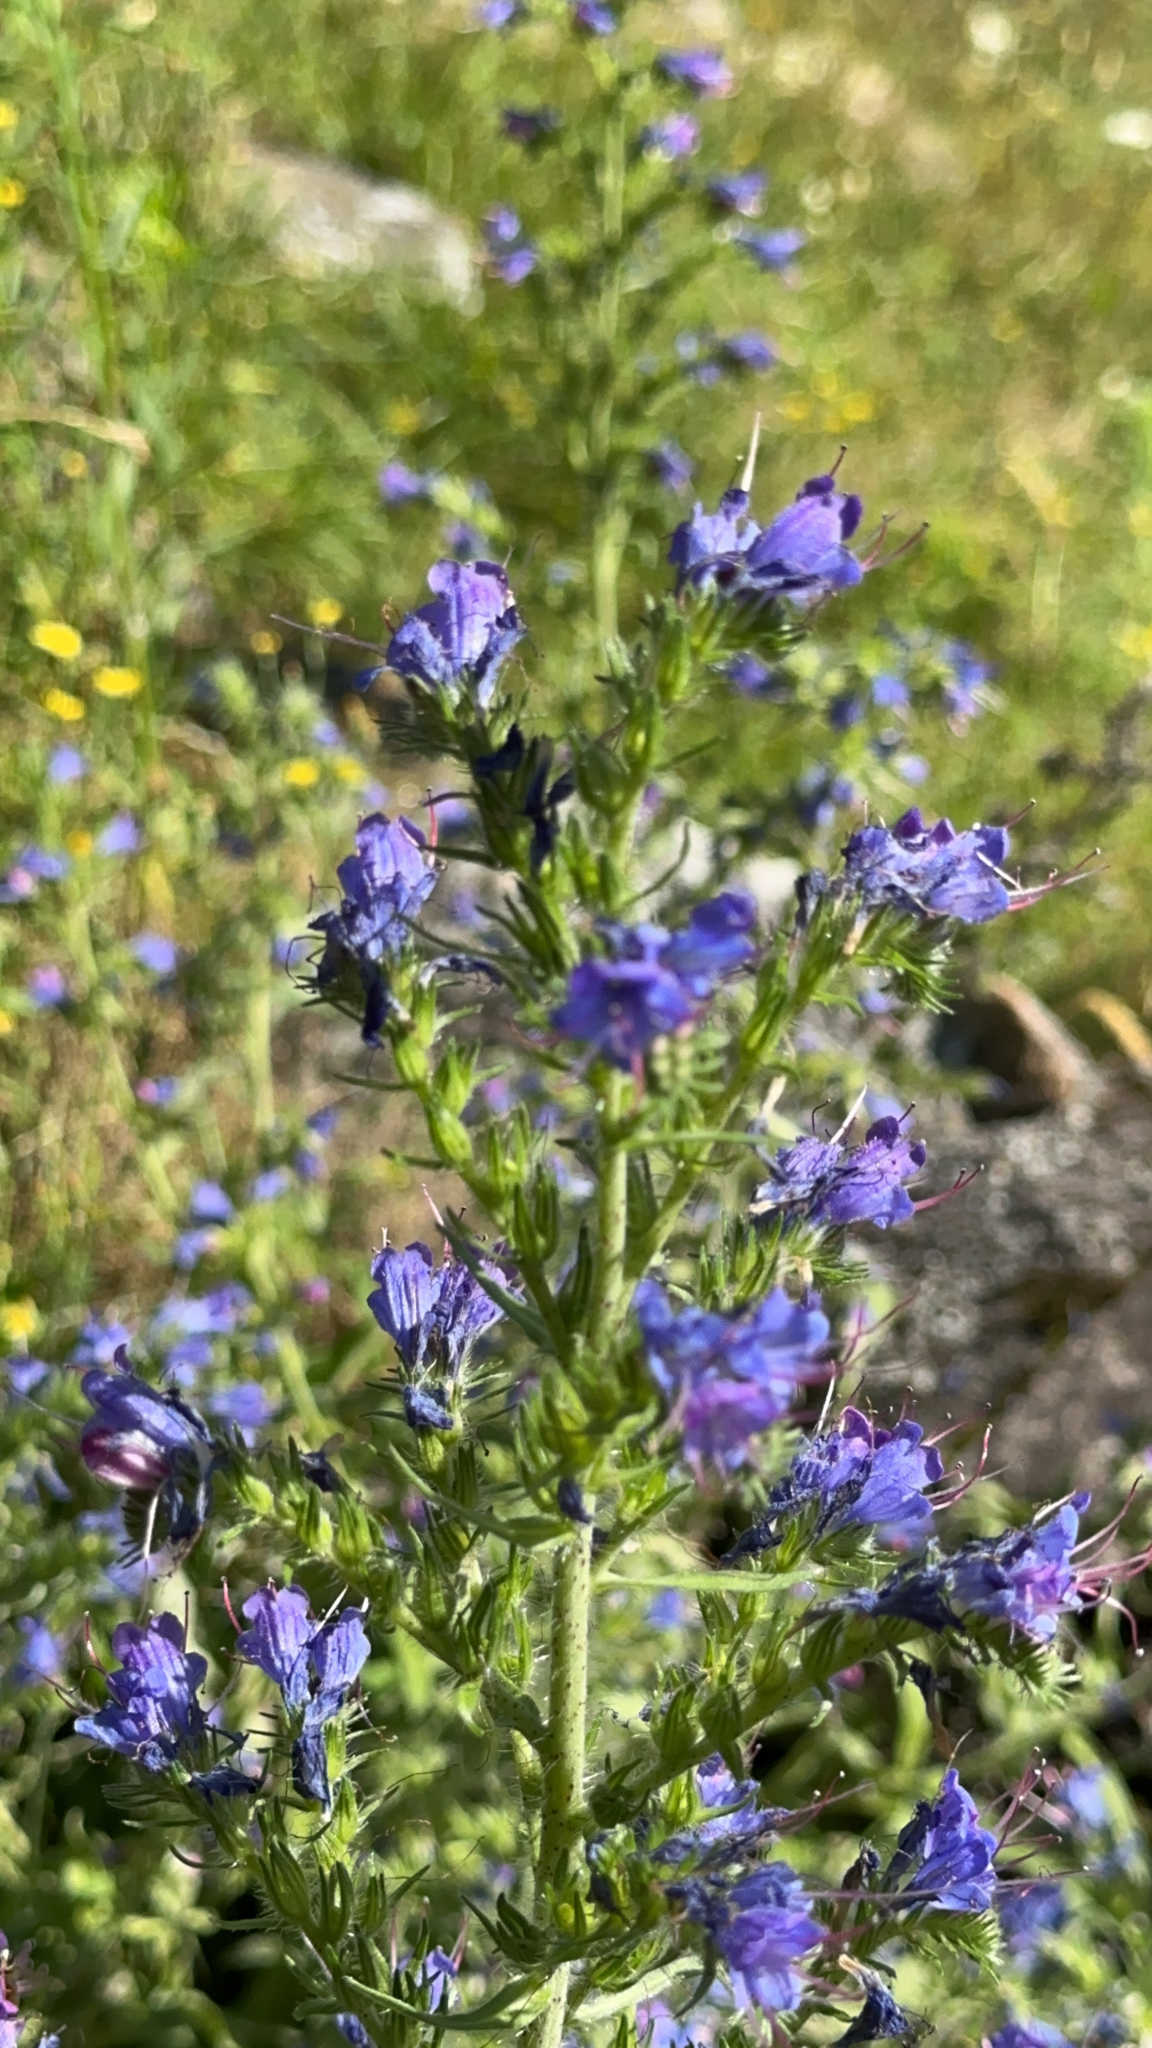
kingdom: Plantae
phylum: Tracheophyta
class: Magnoliopsida
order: Boraginales
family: Boraginaceae
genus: Echium
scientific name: Echium vulgare
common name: Common viper's bugloss
